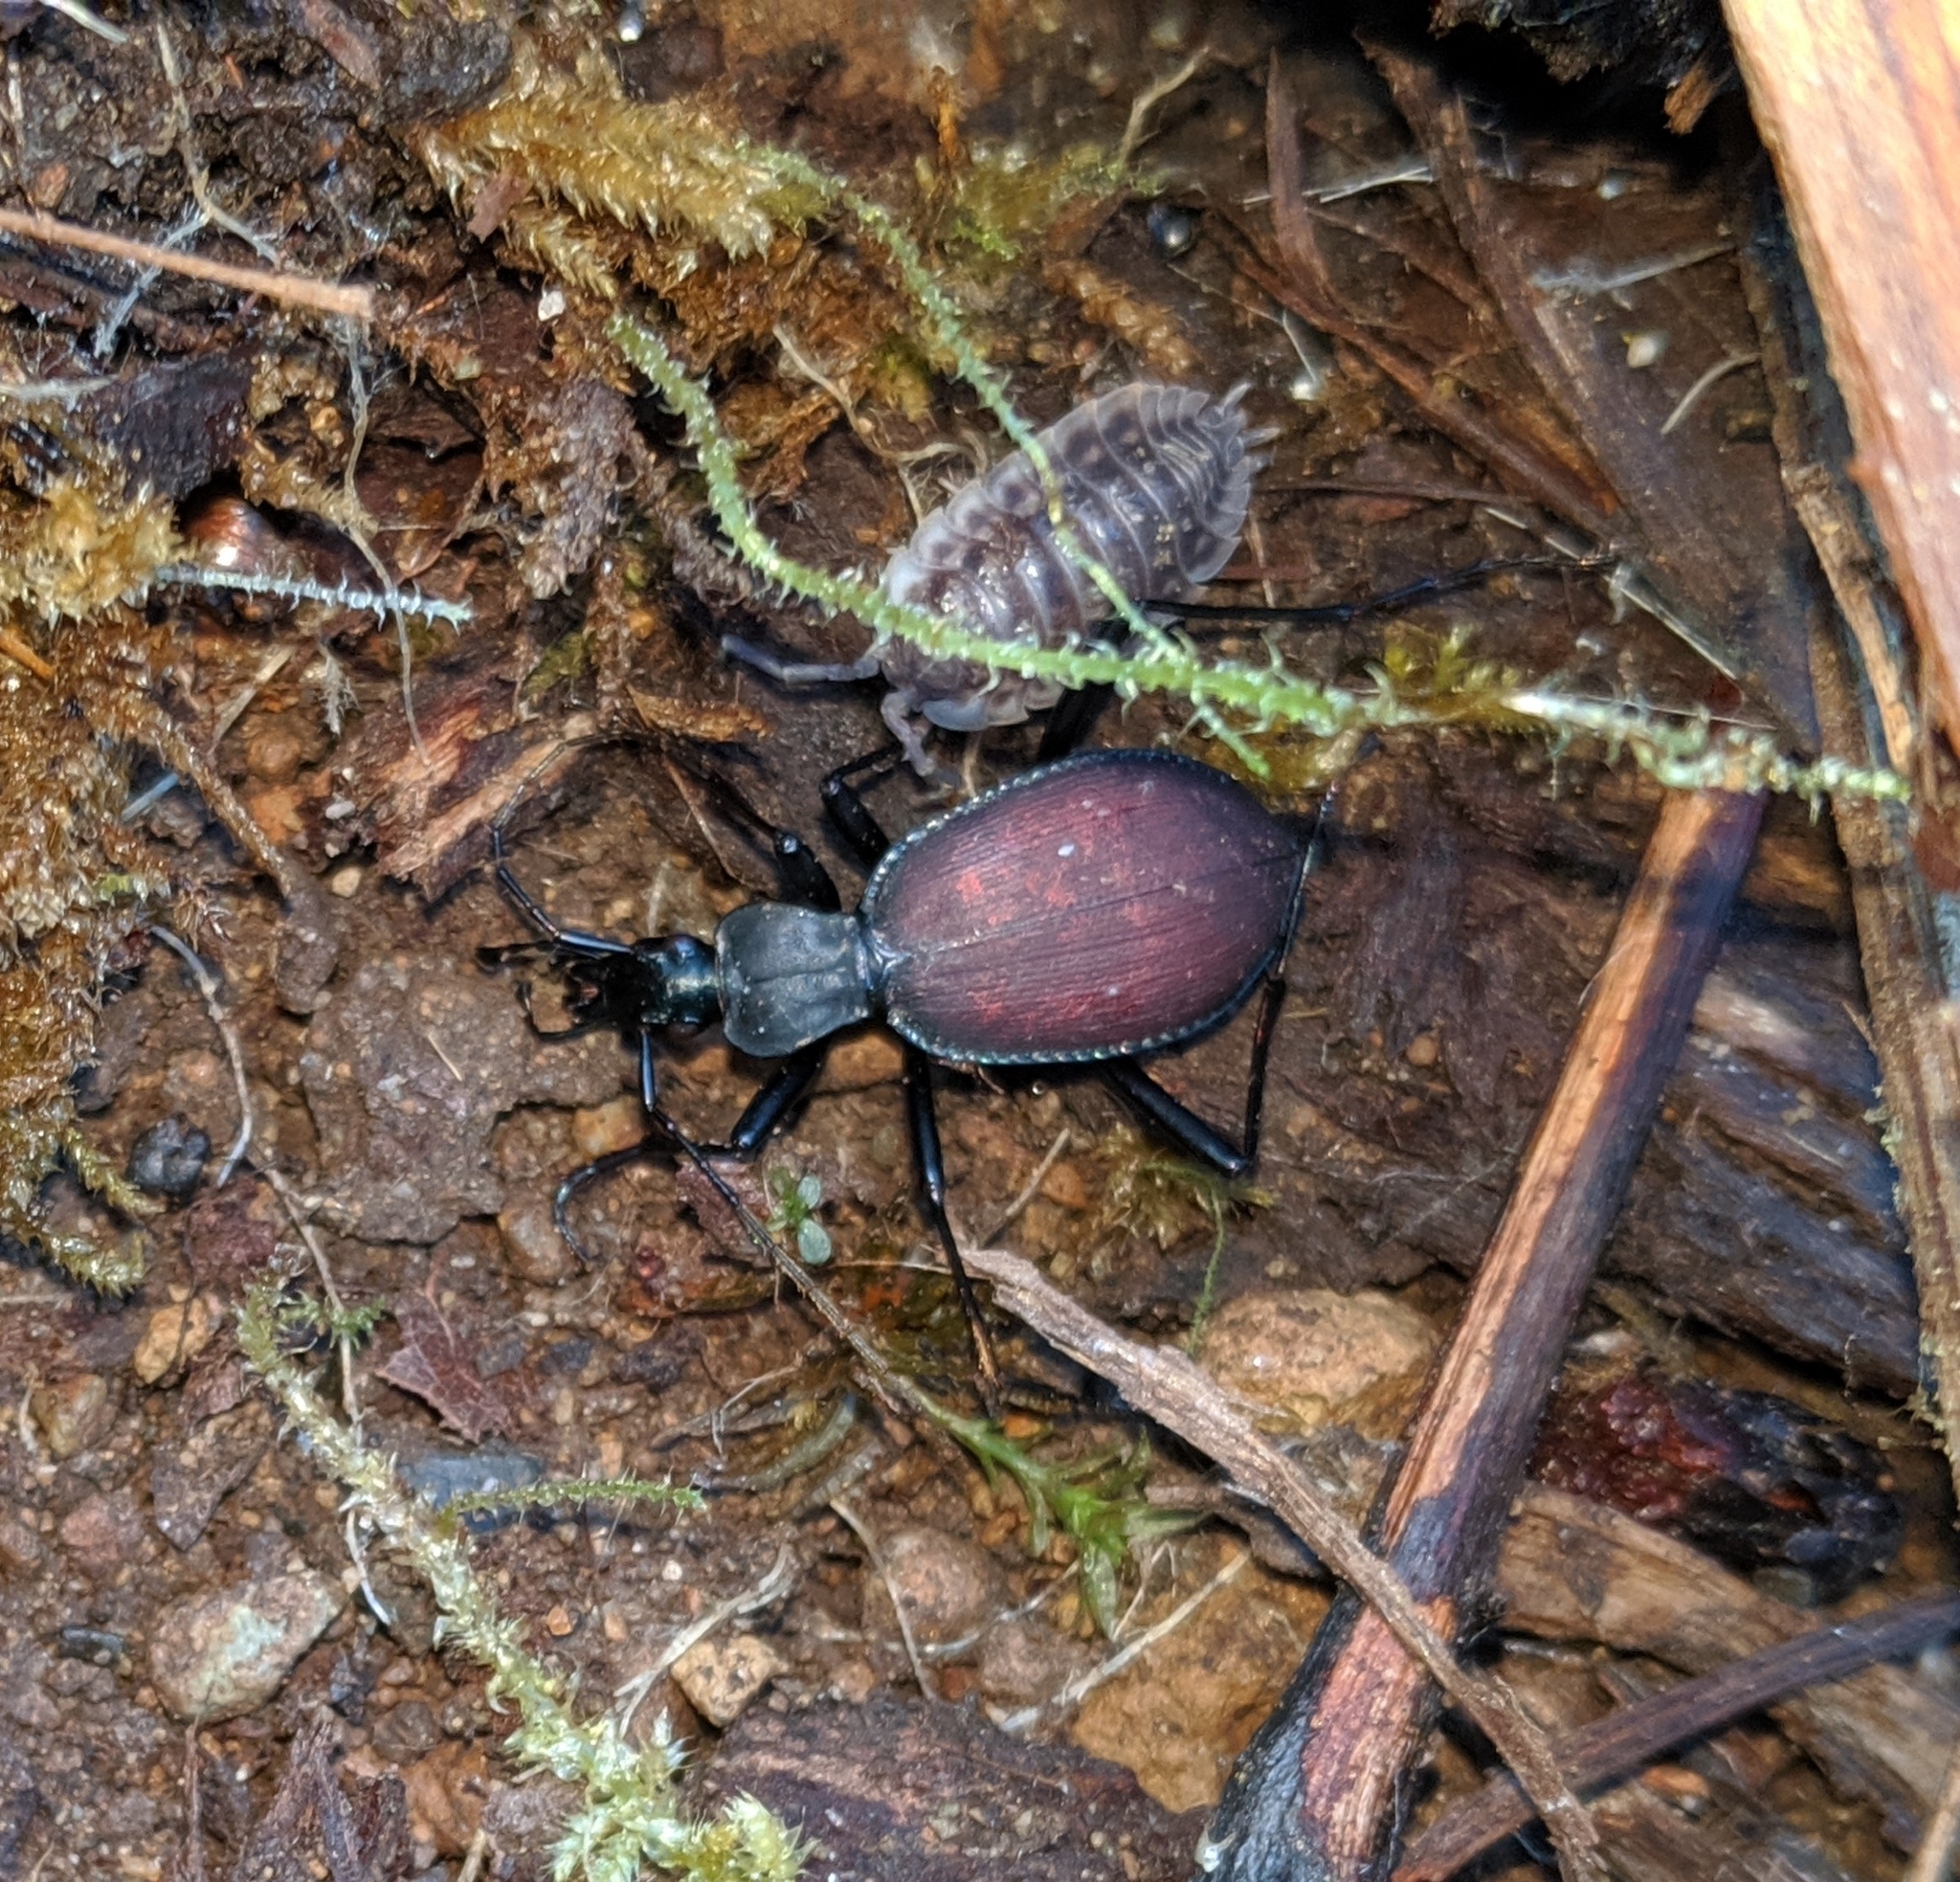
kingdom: Animalia
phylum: Arthropoda
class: Insecta
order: Coleoptera
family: Carabidae
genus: Scaphinotus
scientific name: Scaphinotus angusticollis
